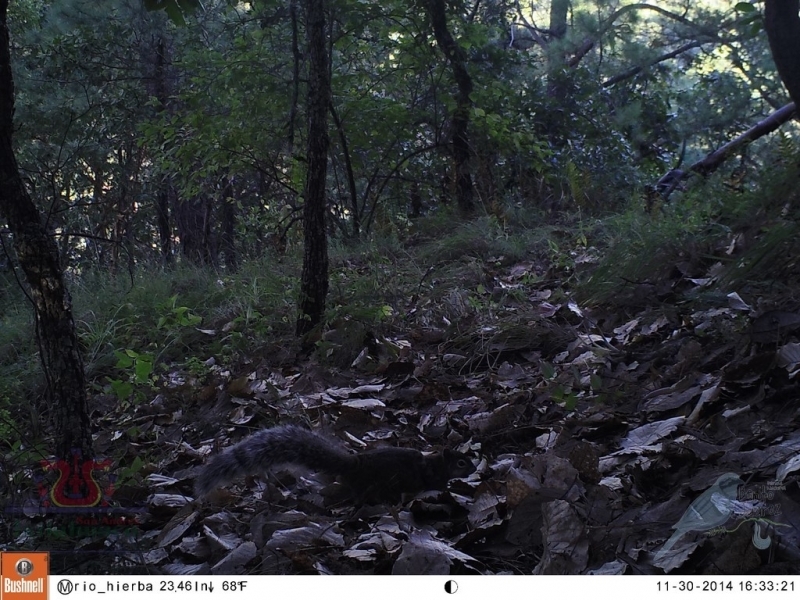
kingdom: Animalia
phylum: Chordata
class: Mammalia
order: Rodentia
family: Sciuridae
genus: Sciurus
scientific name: Sciurus aureogaster
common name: Red-bellied squirrel
